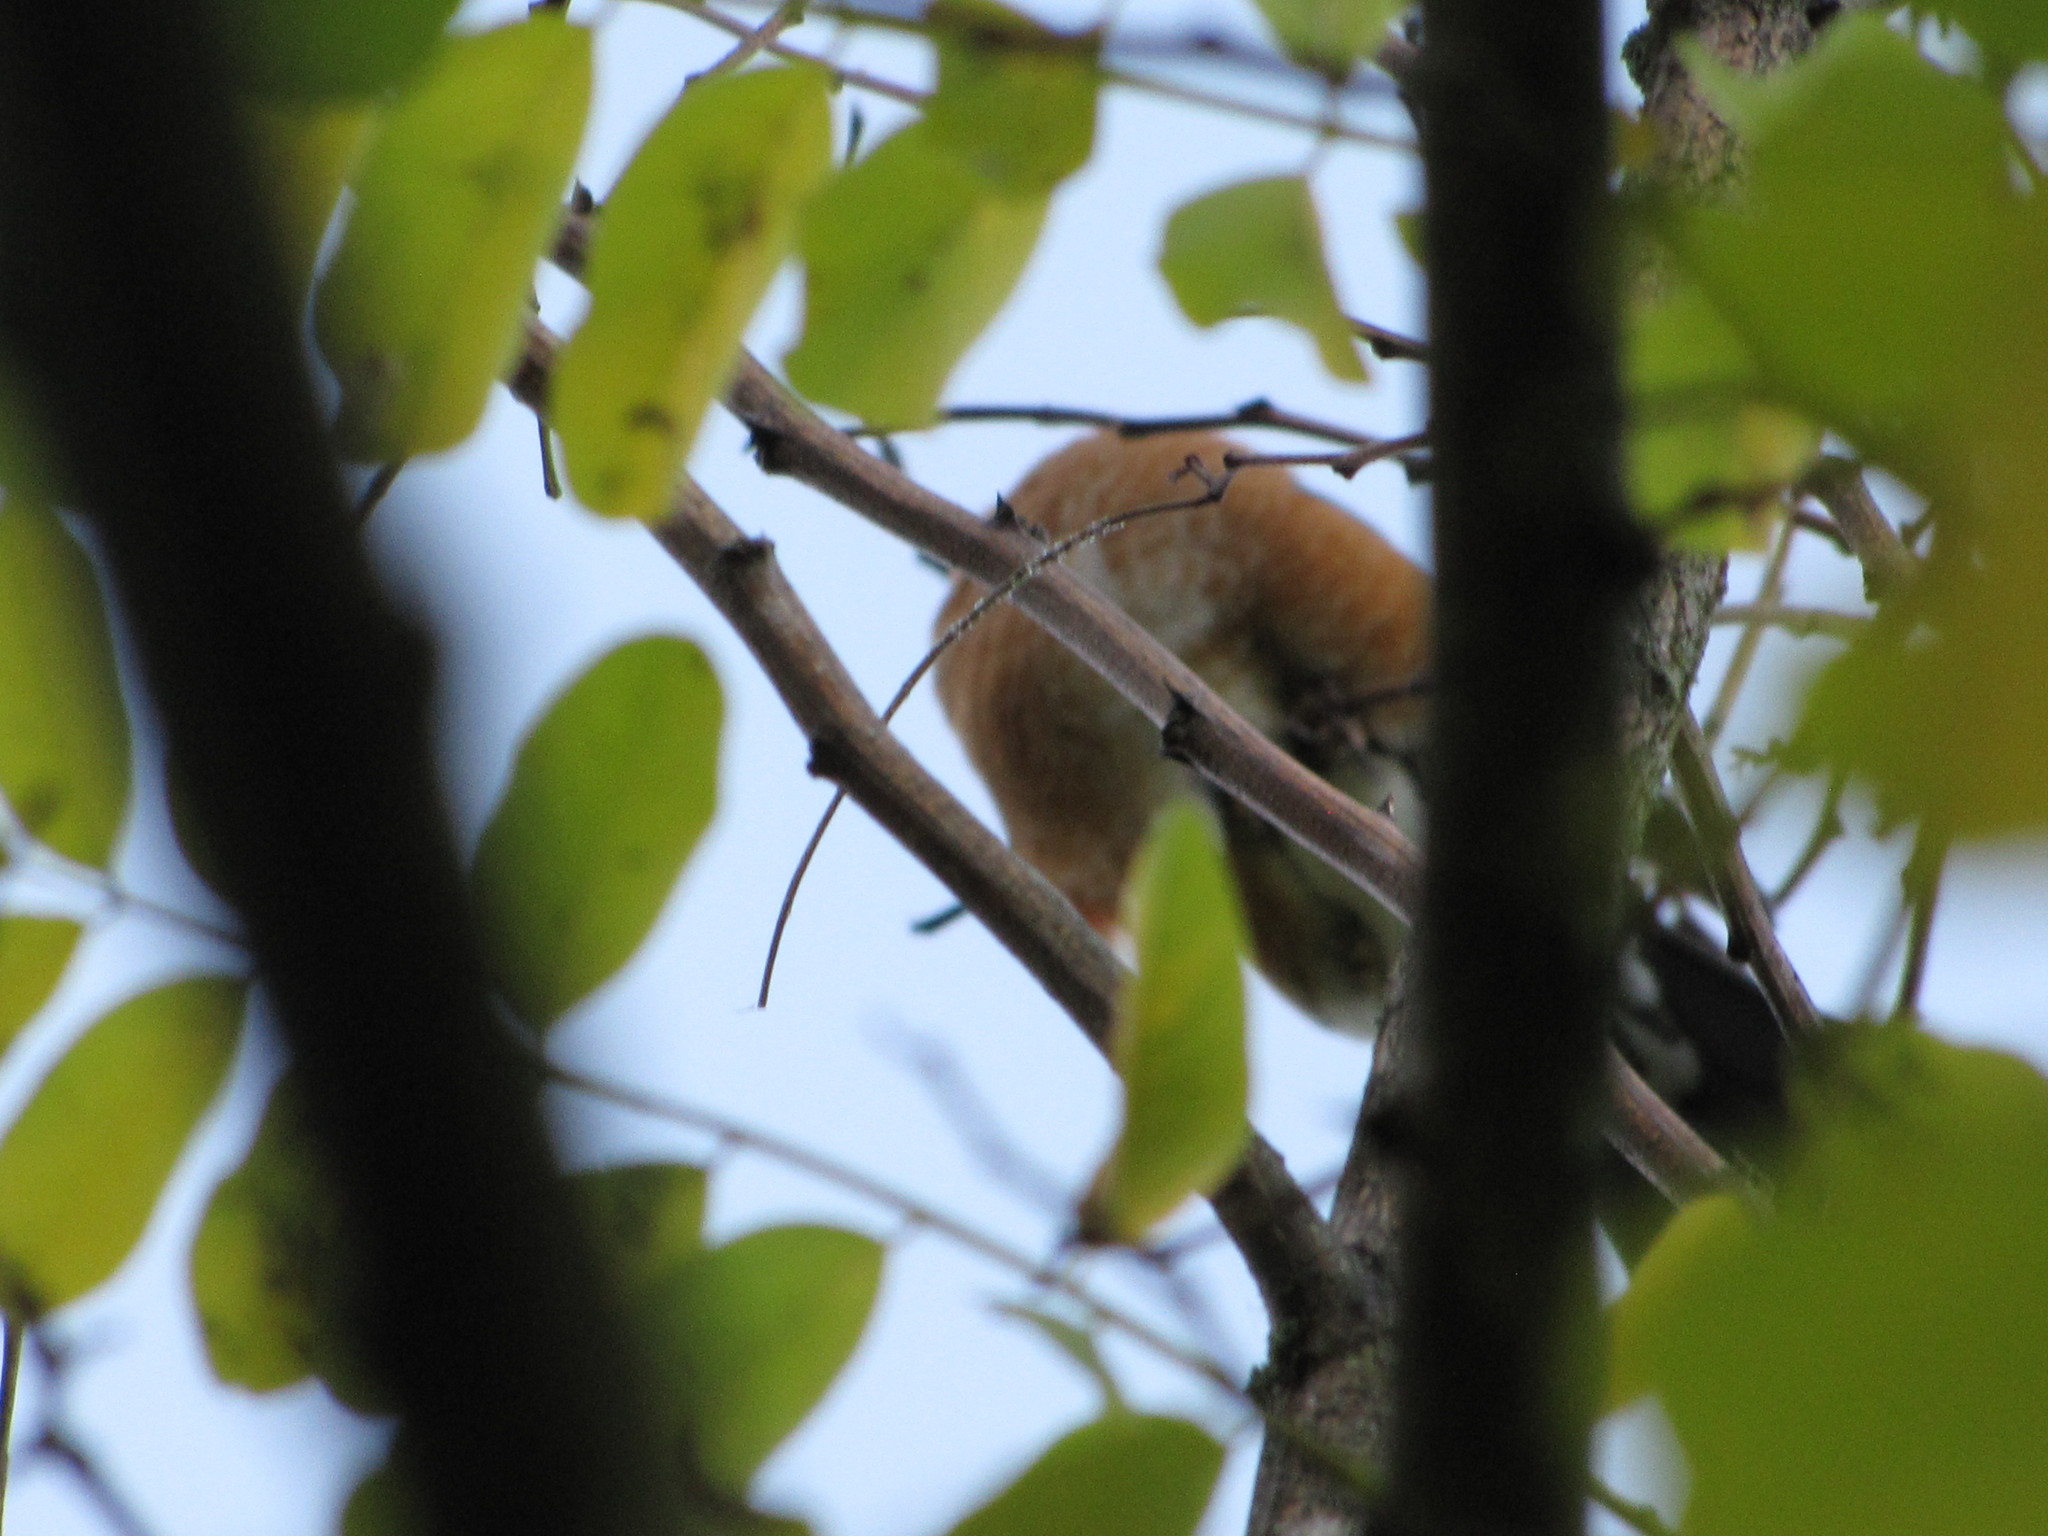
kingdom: Animalia
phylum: Chordata
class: Aves
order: Passeriformes
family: Turdidae
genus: Turdus
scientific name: Turdus migratorius
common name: American robin
